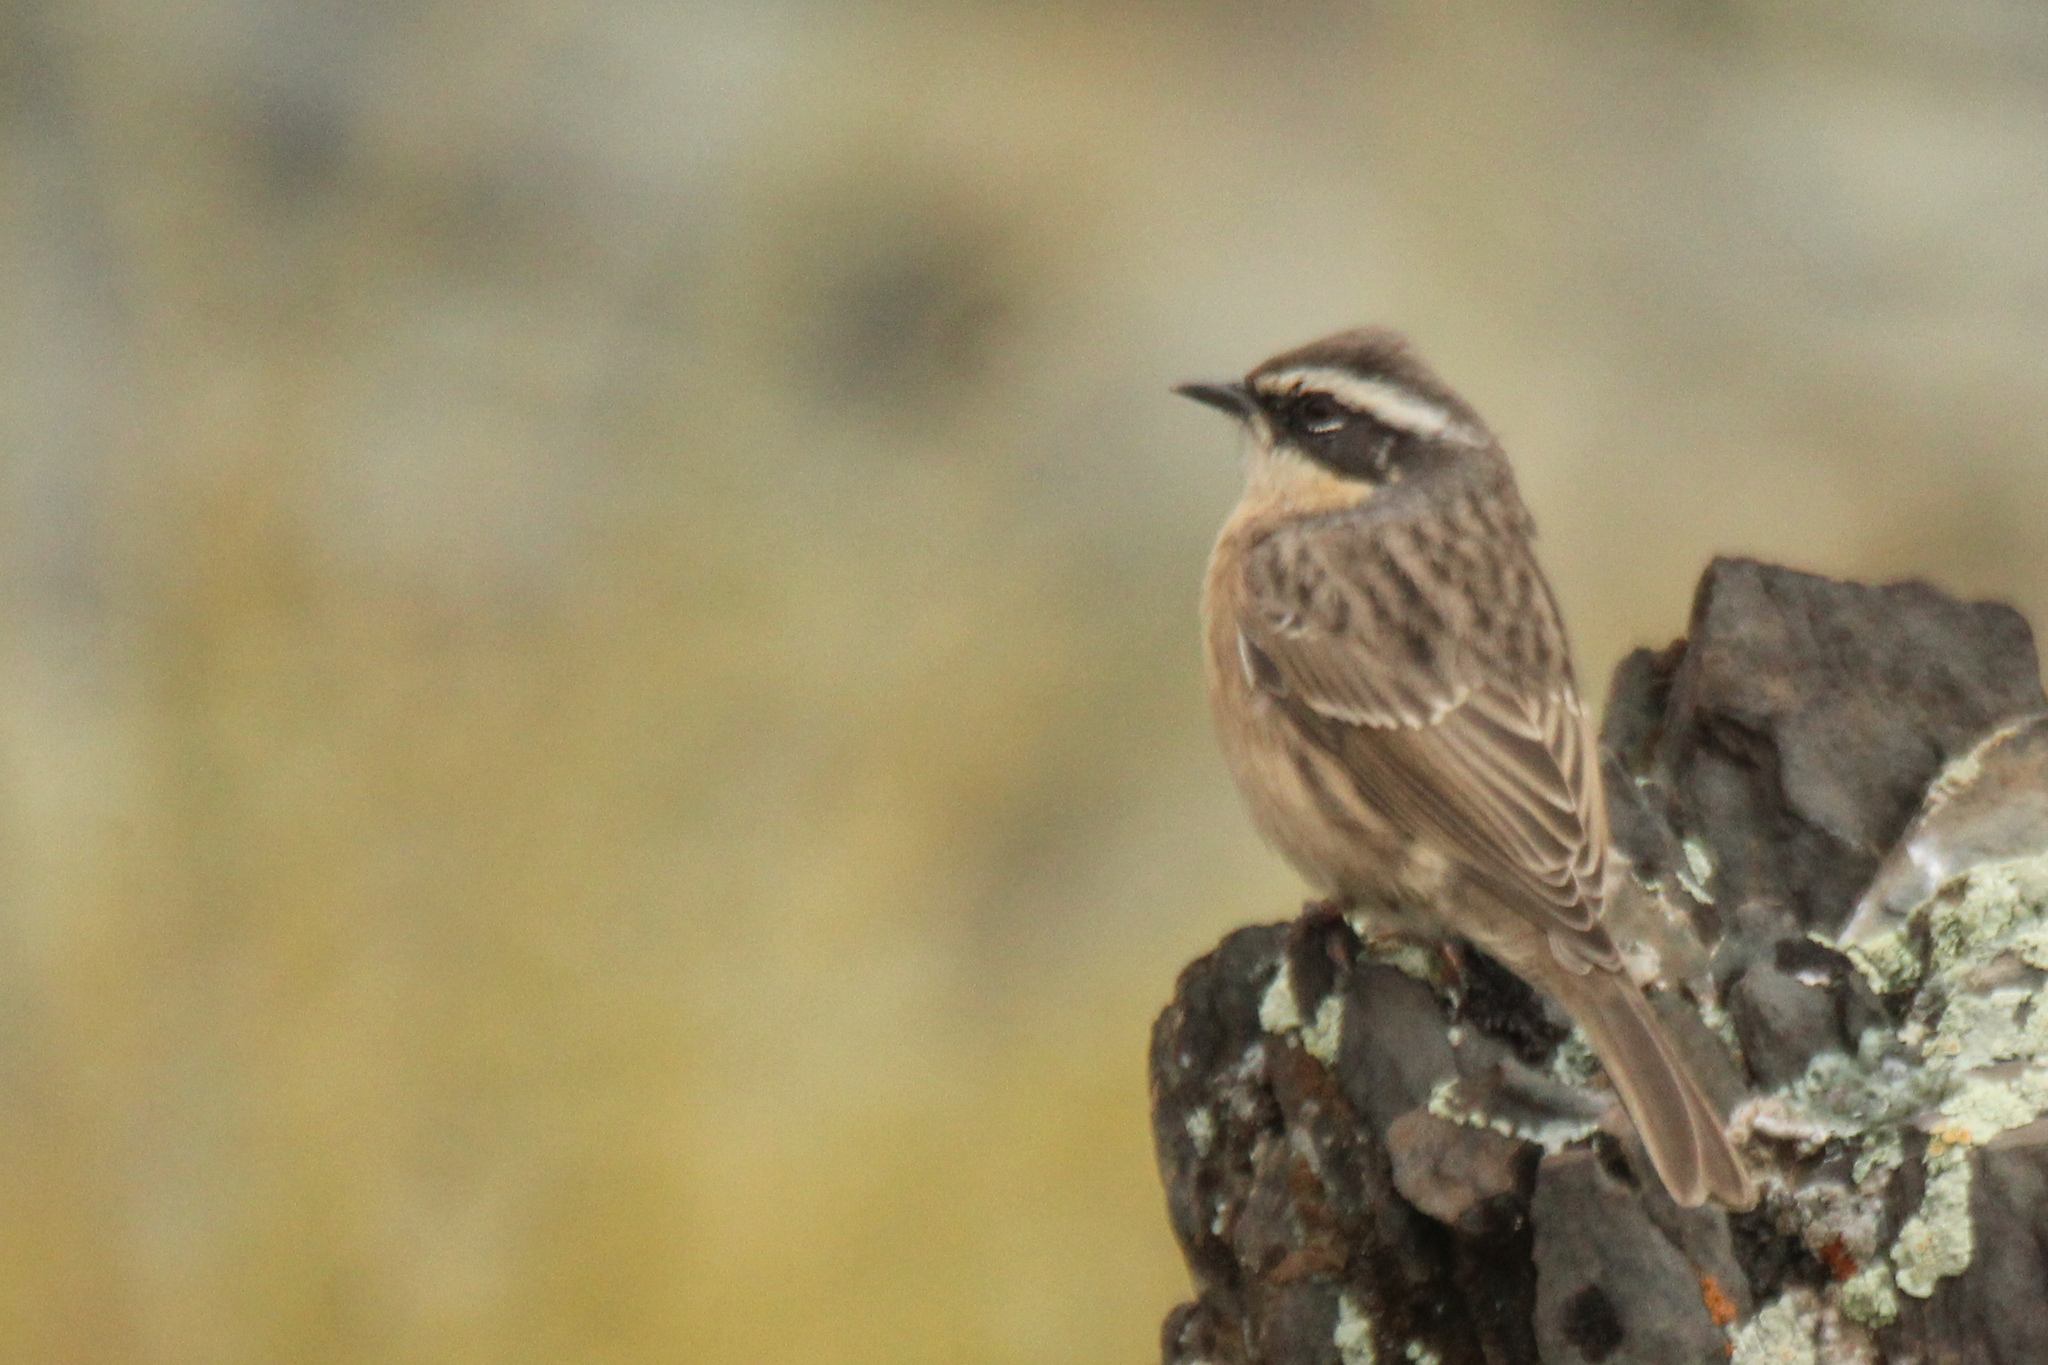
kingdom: Animalia
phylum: Chordata
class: Aves
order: Passeriformes
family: Prunellidae
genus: Prunella
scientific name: Prunella fulvescens
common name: Brown accentor
